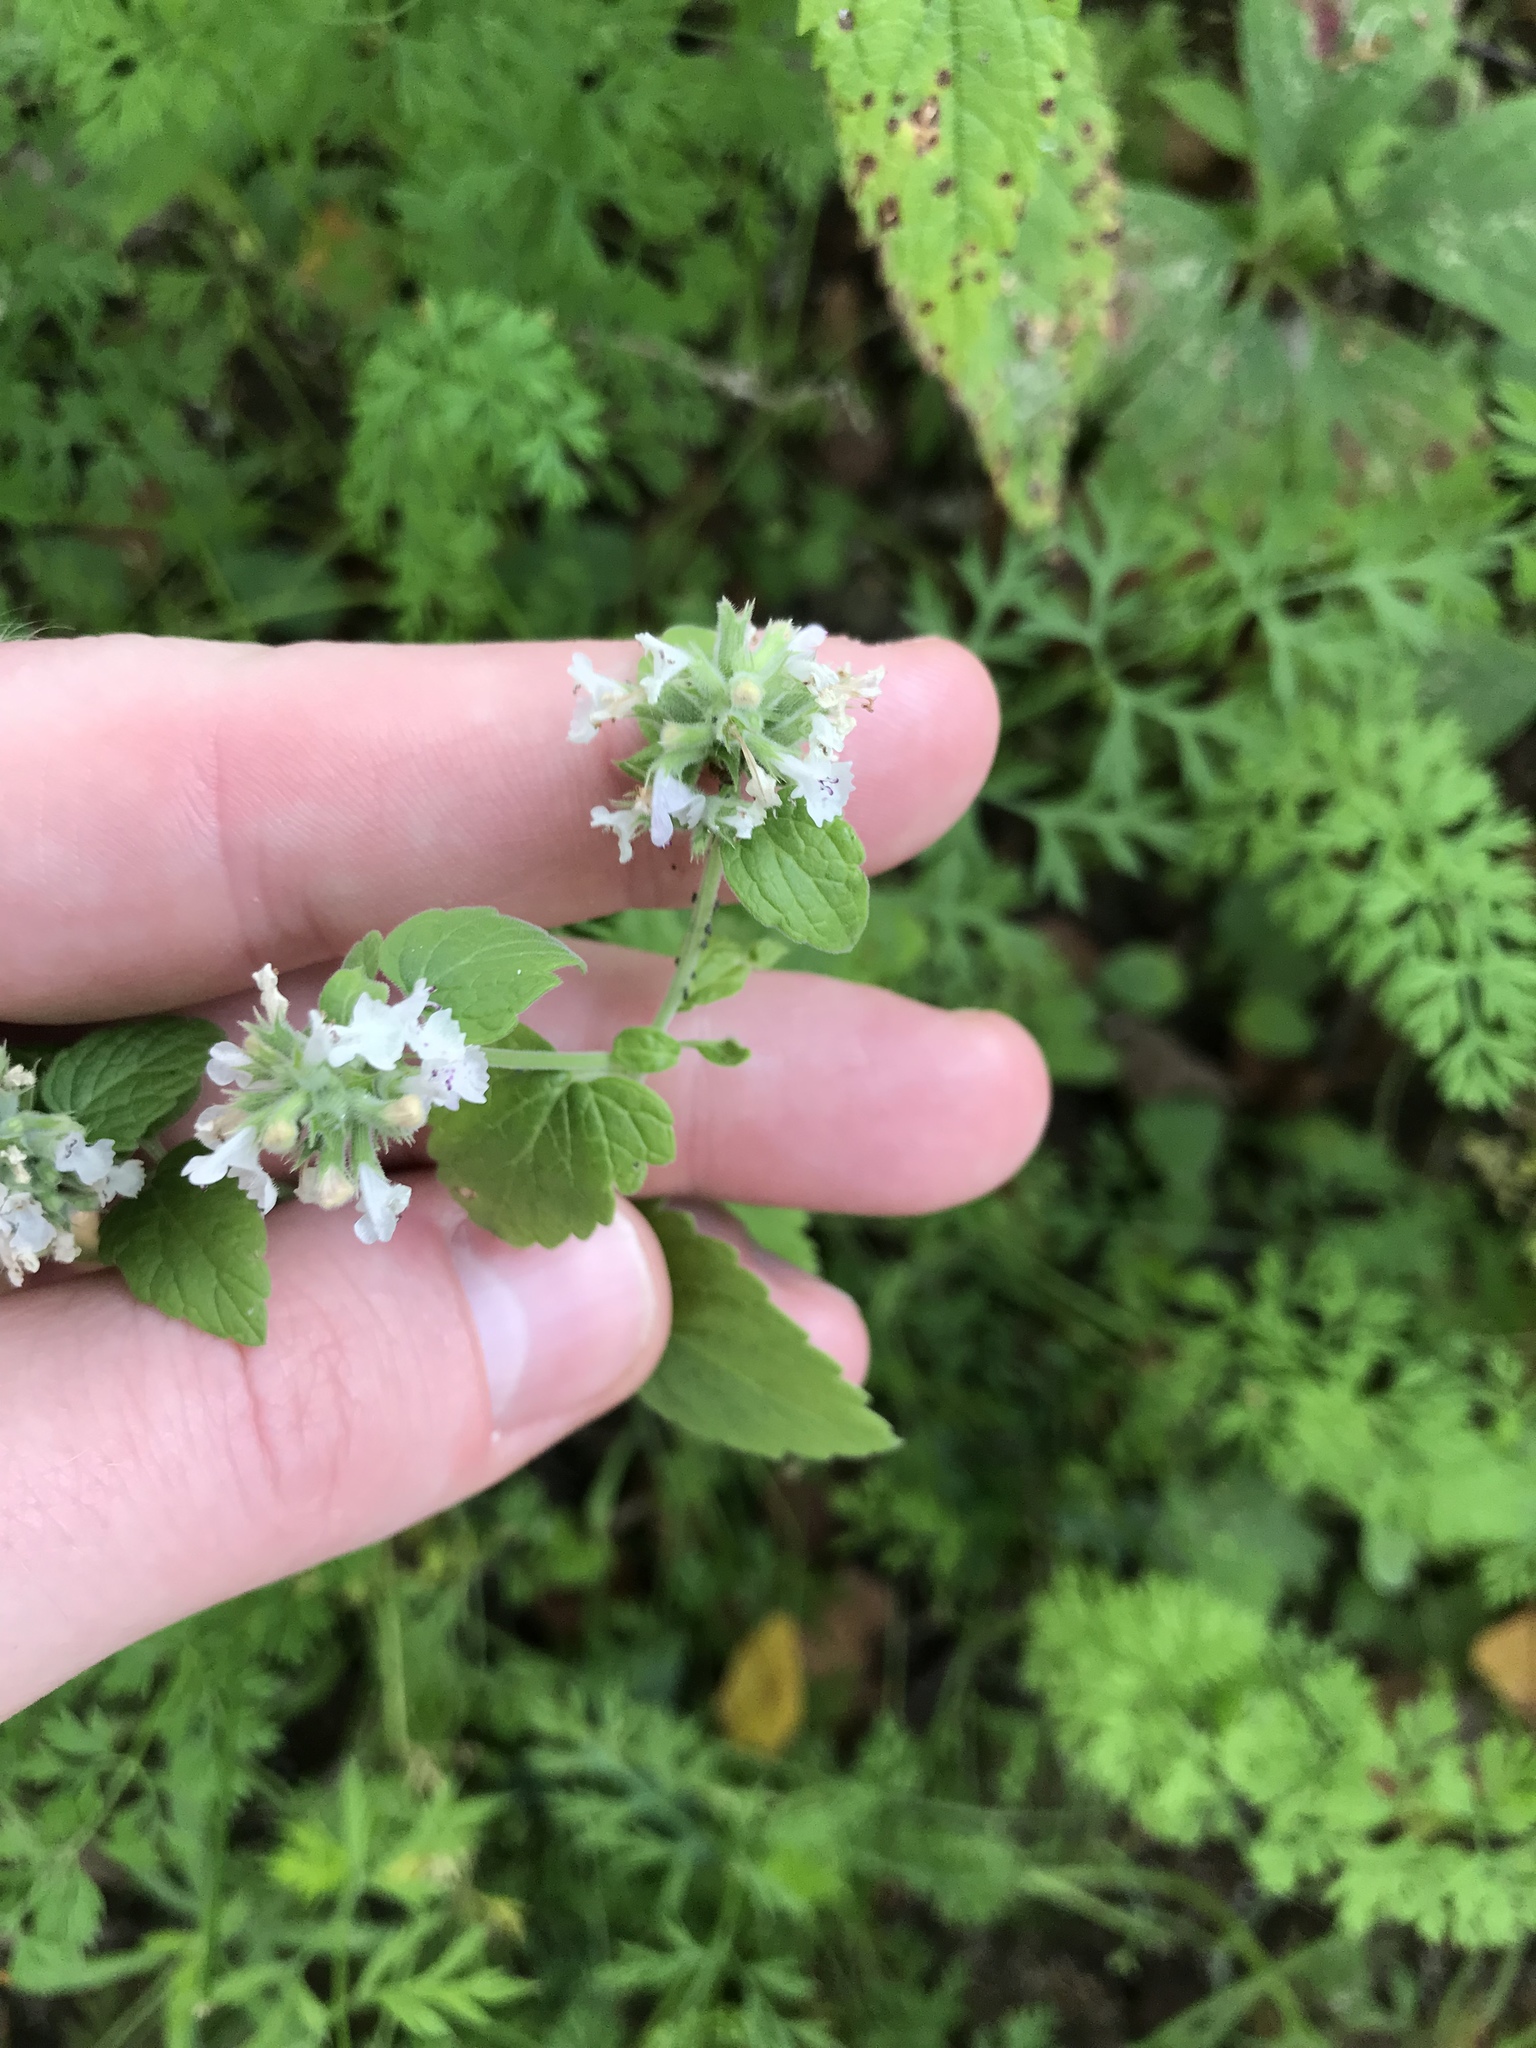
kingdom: Plantae
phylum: Tracheophyta
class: Magnoliopsida
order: Lamiales
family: Lamiaceae
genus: Nepeta
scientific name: Nepeta cataria
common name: Catnip
